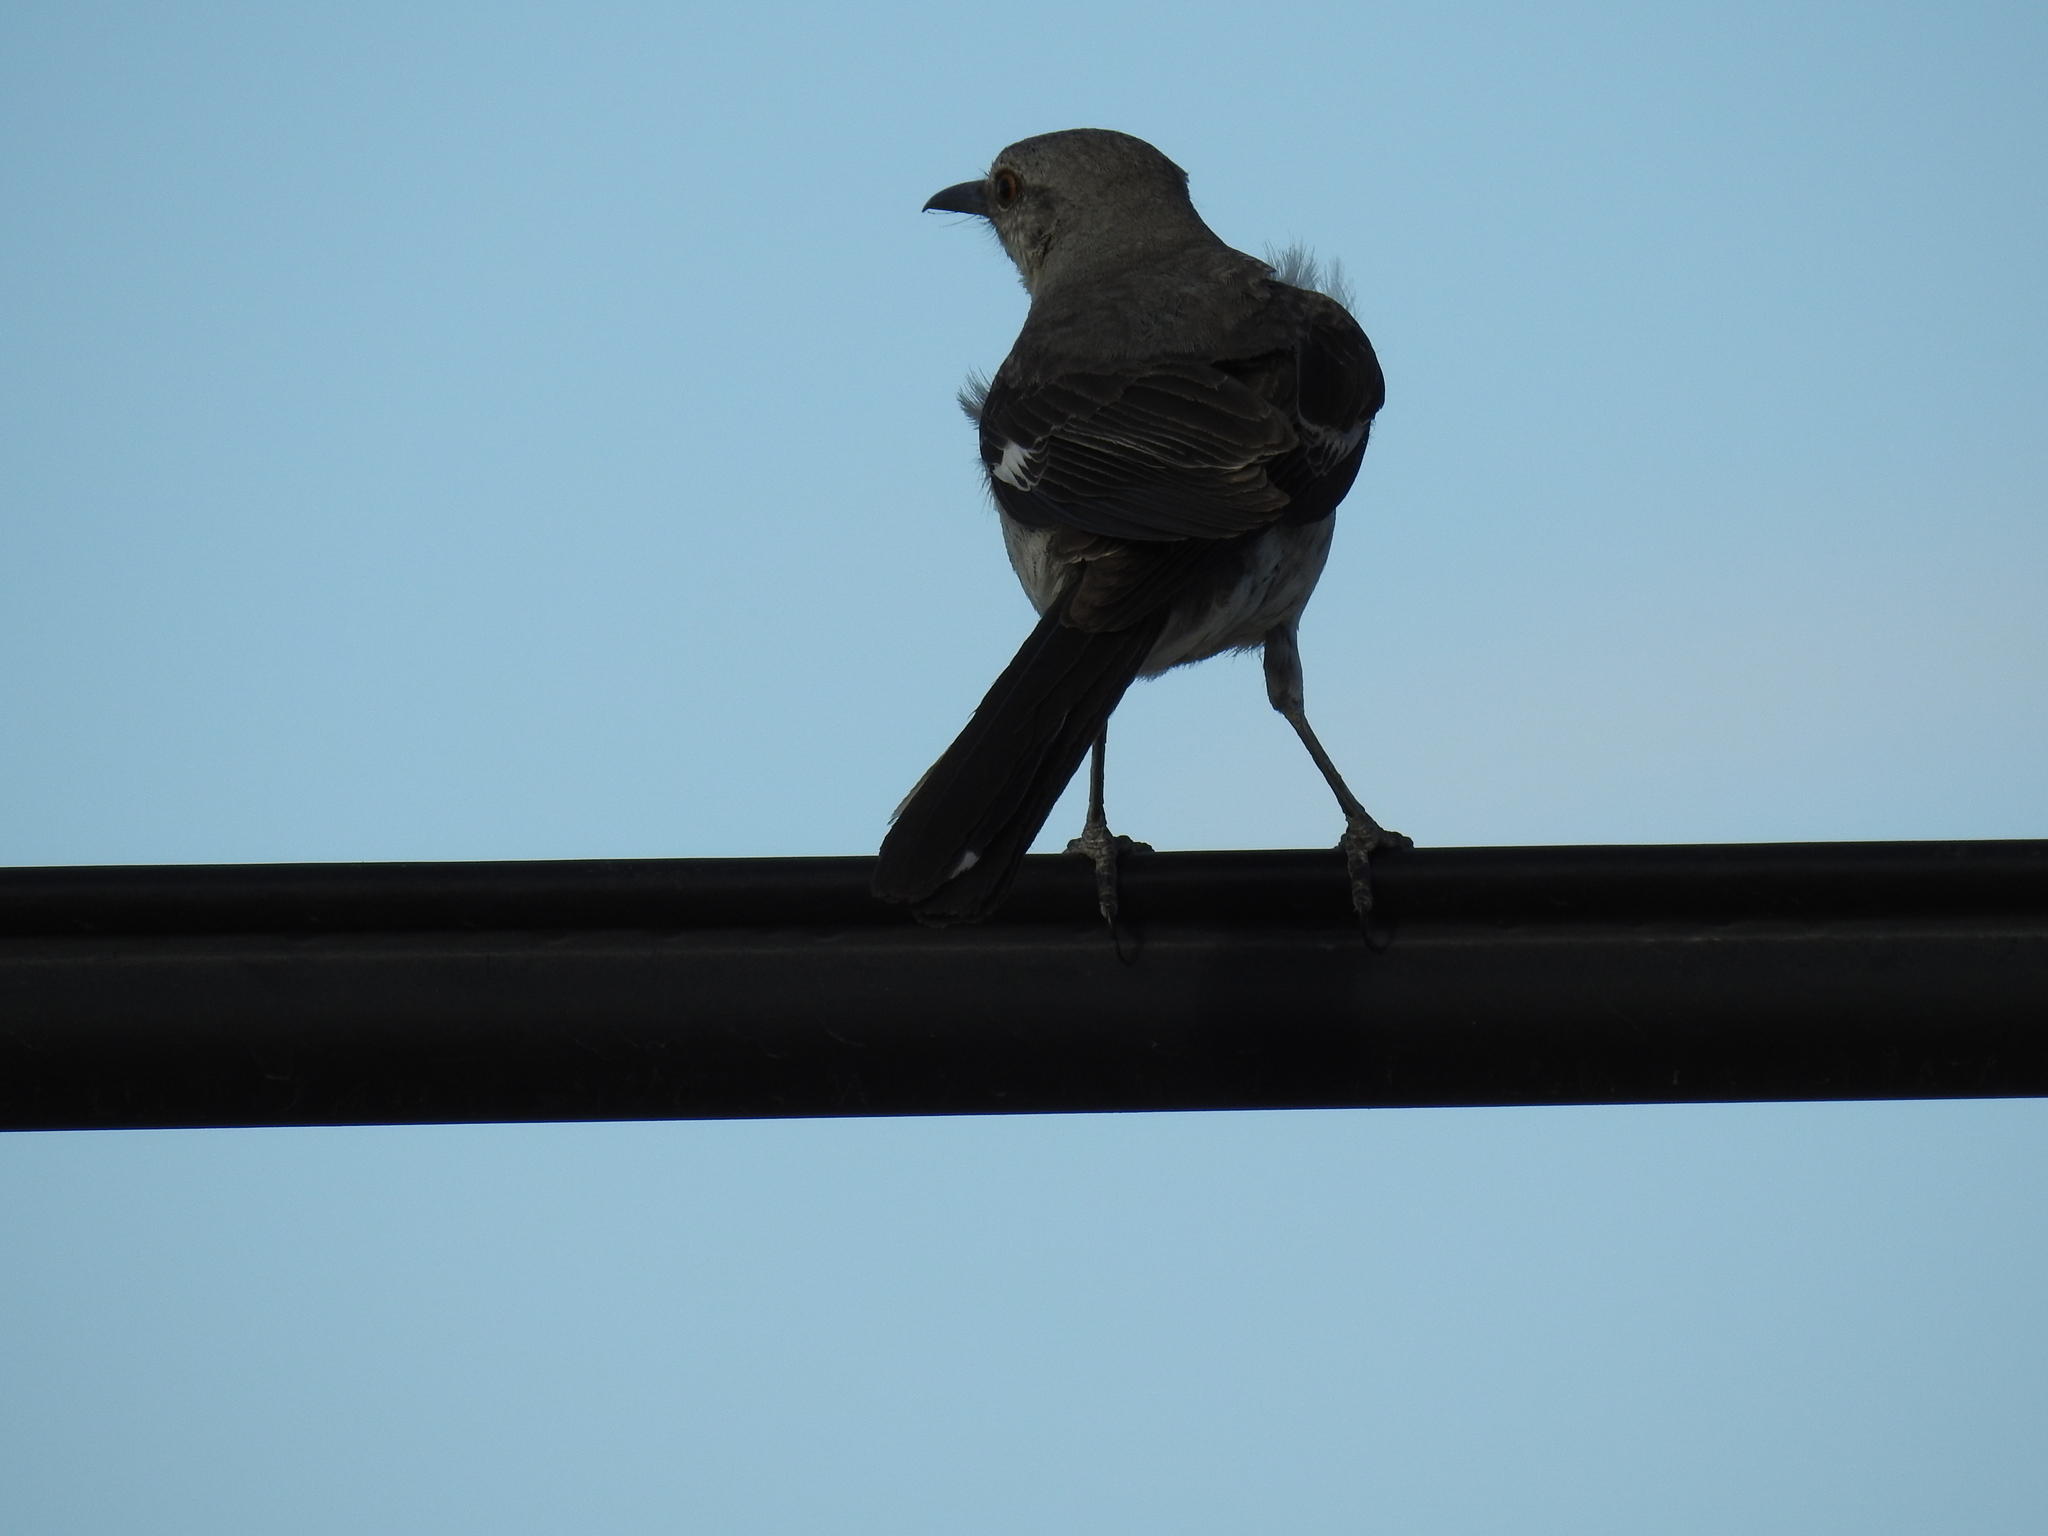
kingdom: Animalia
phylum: Chordata
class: Aves
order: Passeriformes
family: Mimidae
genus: Mimus
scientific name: Mimus polyglottos
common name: Northern mockingbird
